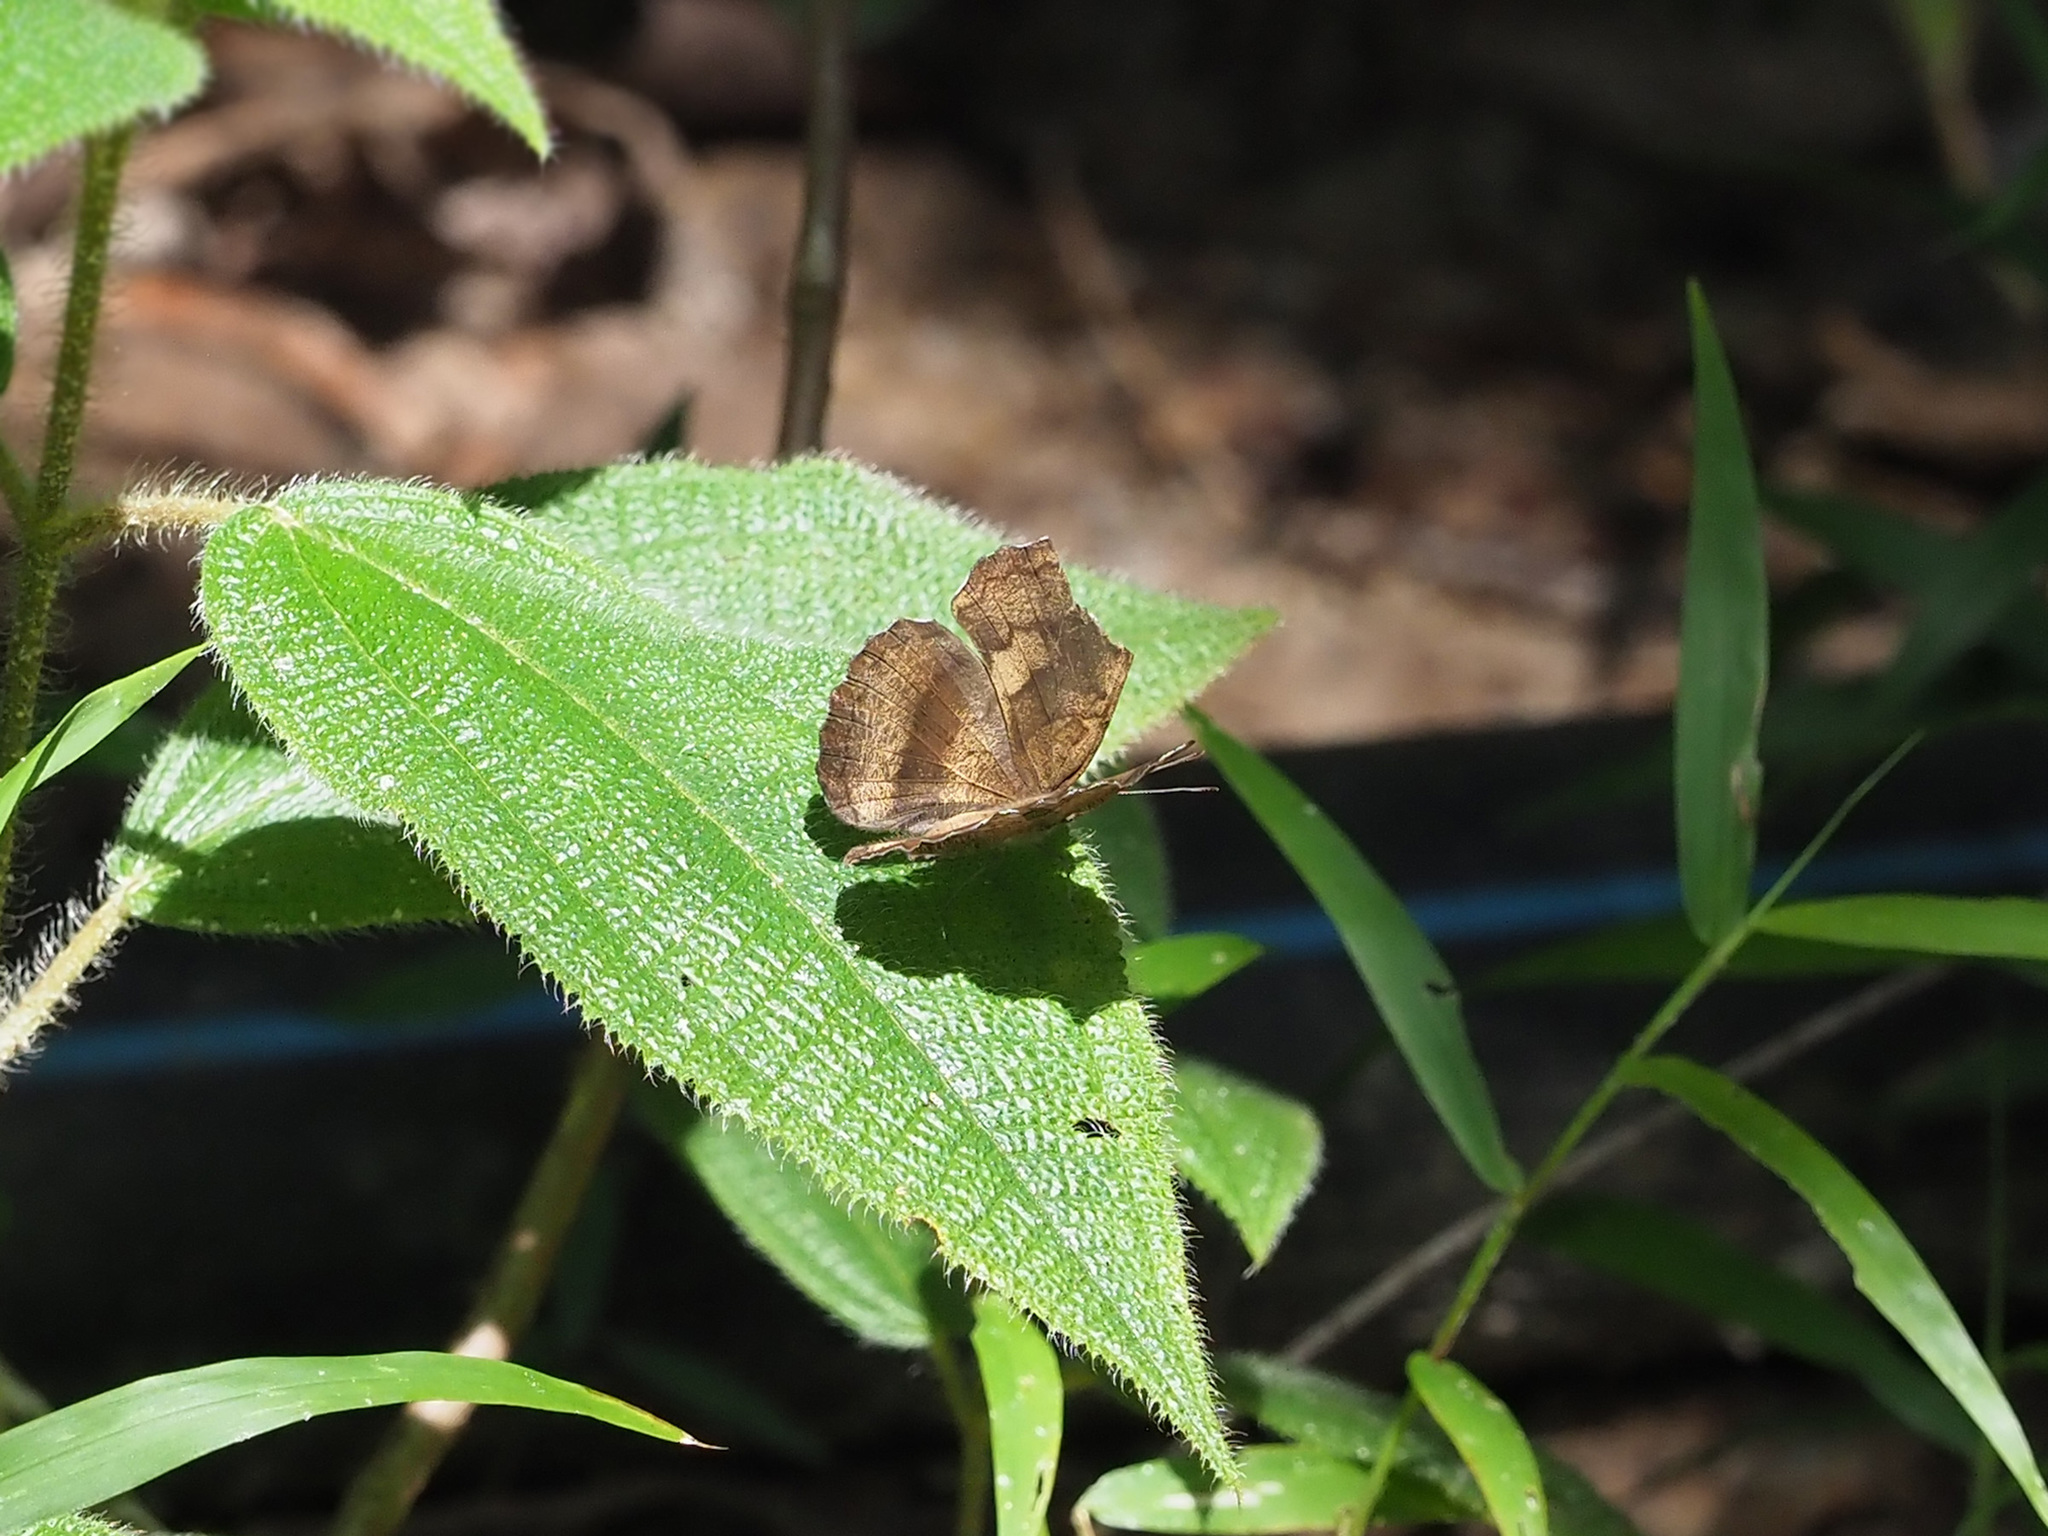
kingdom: Animalia
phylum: Arthropoda
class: Insecta
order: Lepidoptera
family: Nymphalidae
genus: Laringa
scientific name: Laringa castelnaui
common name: Blue dandy
